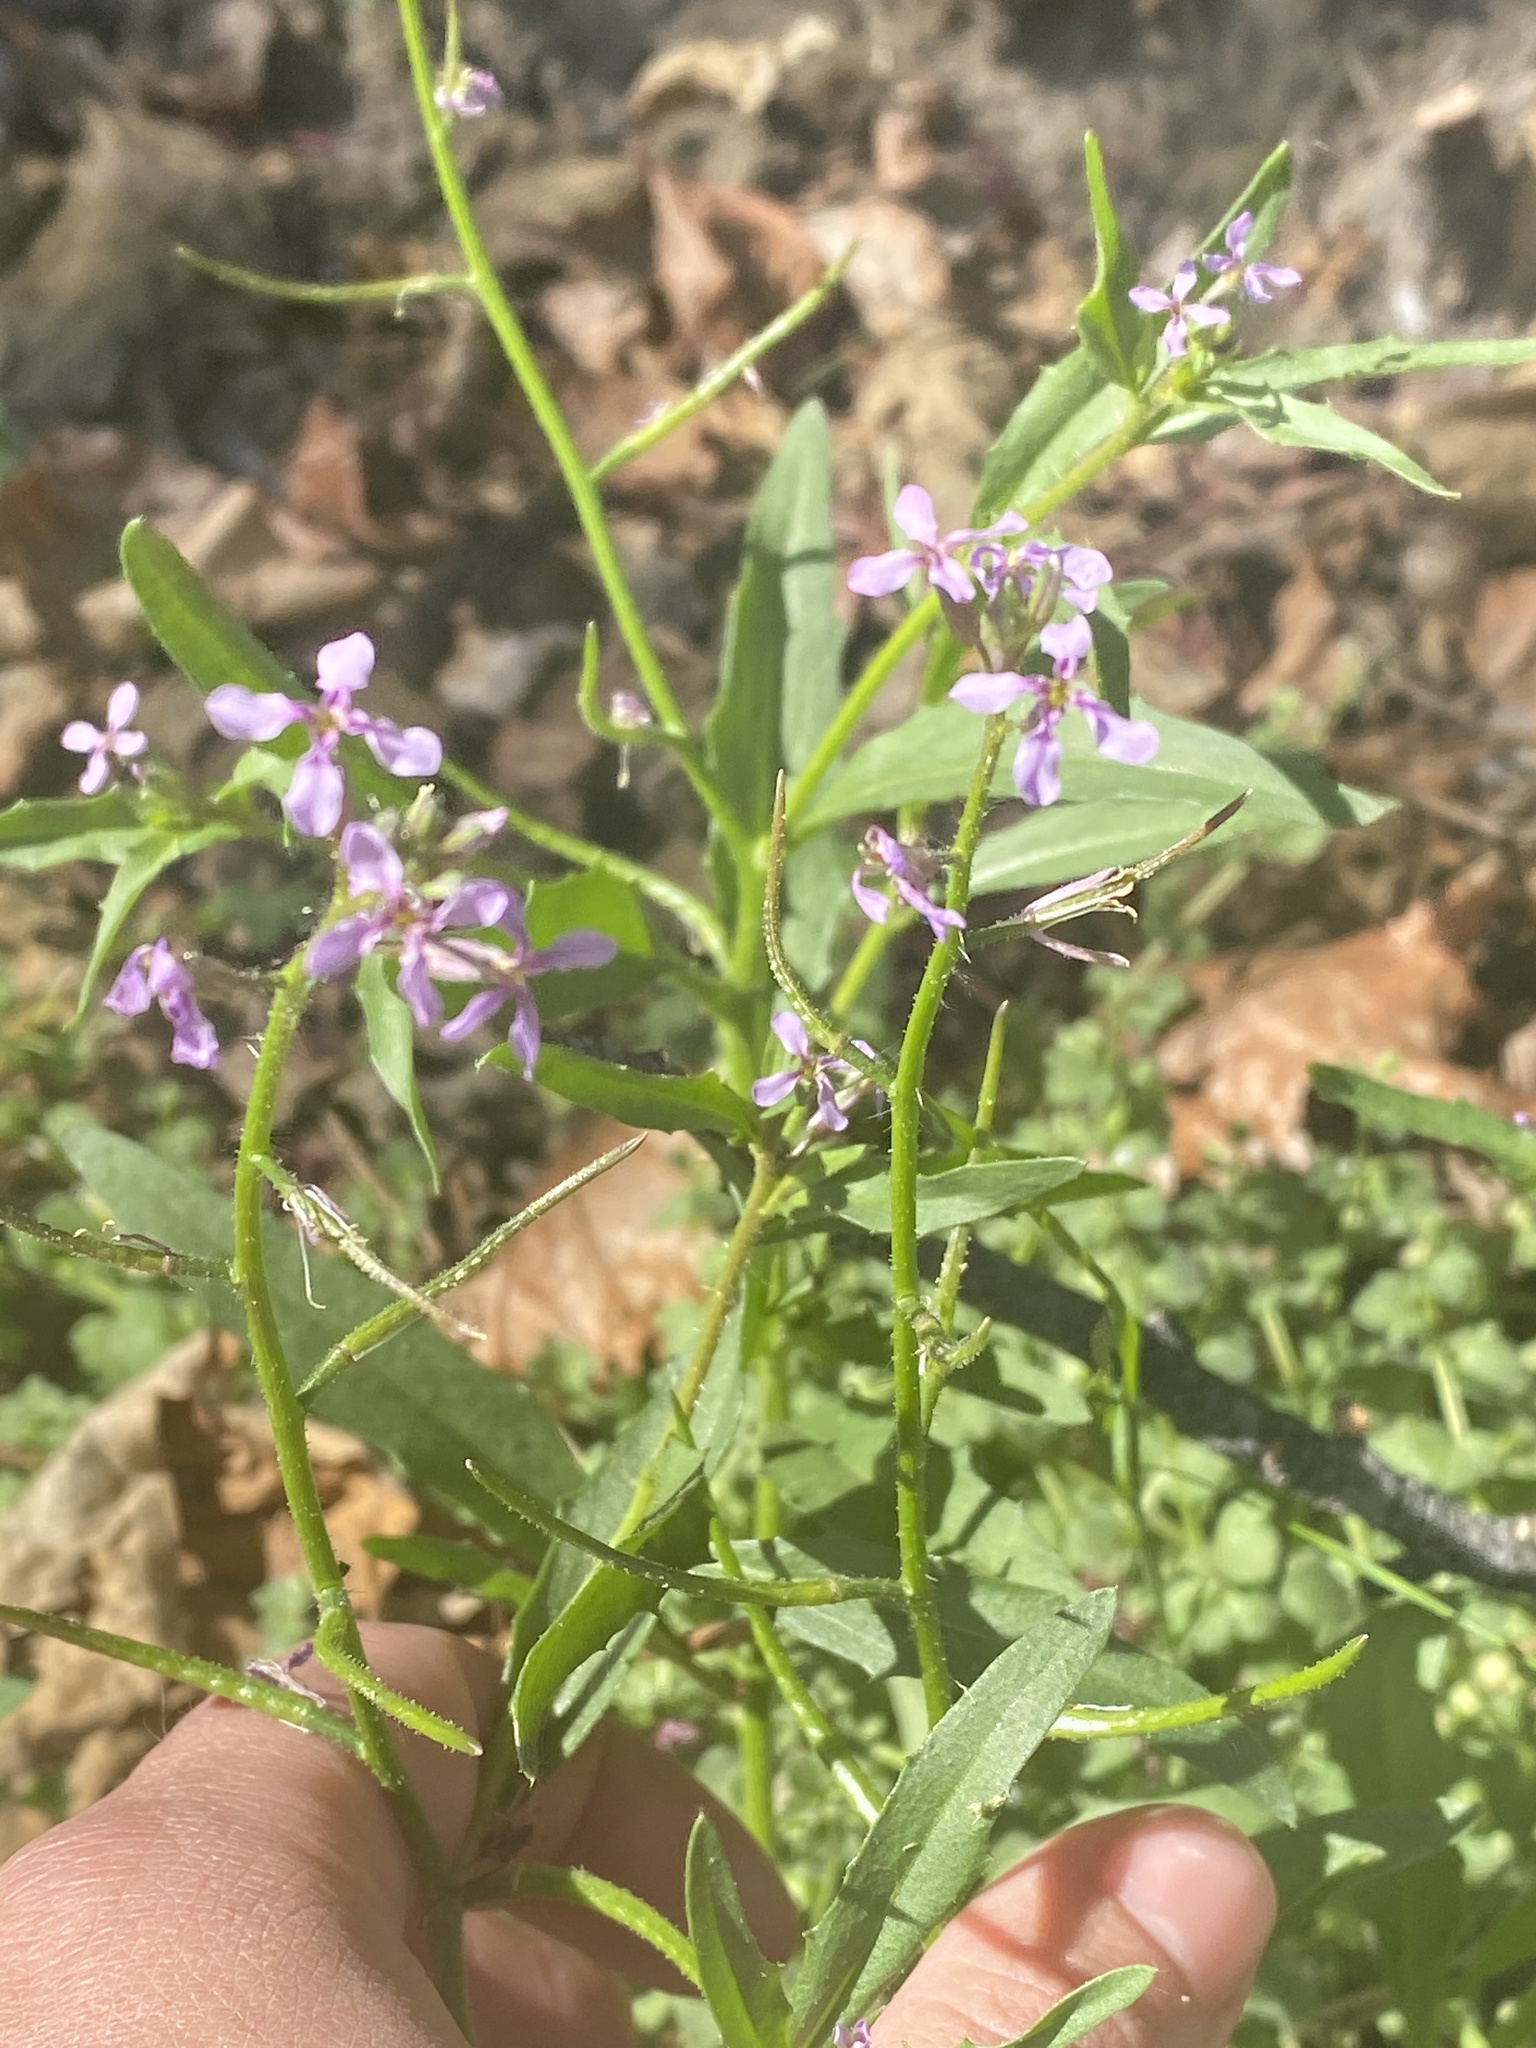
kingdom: Plantae
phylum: Tracheophyta
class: Magnoliopsida
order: Brassicales
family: Brassicaceae
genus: Chorispora
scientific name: Chorispora tenella
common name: Crossflower
